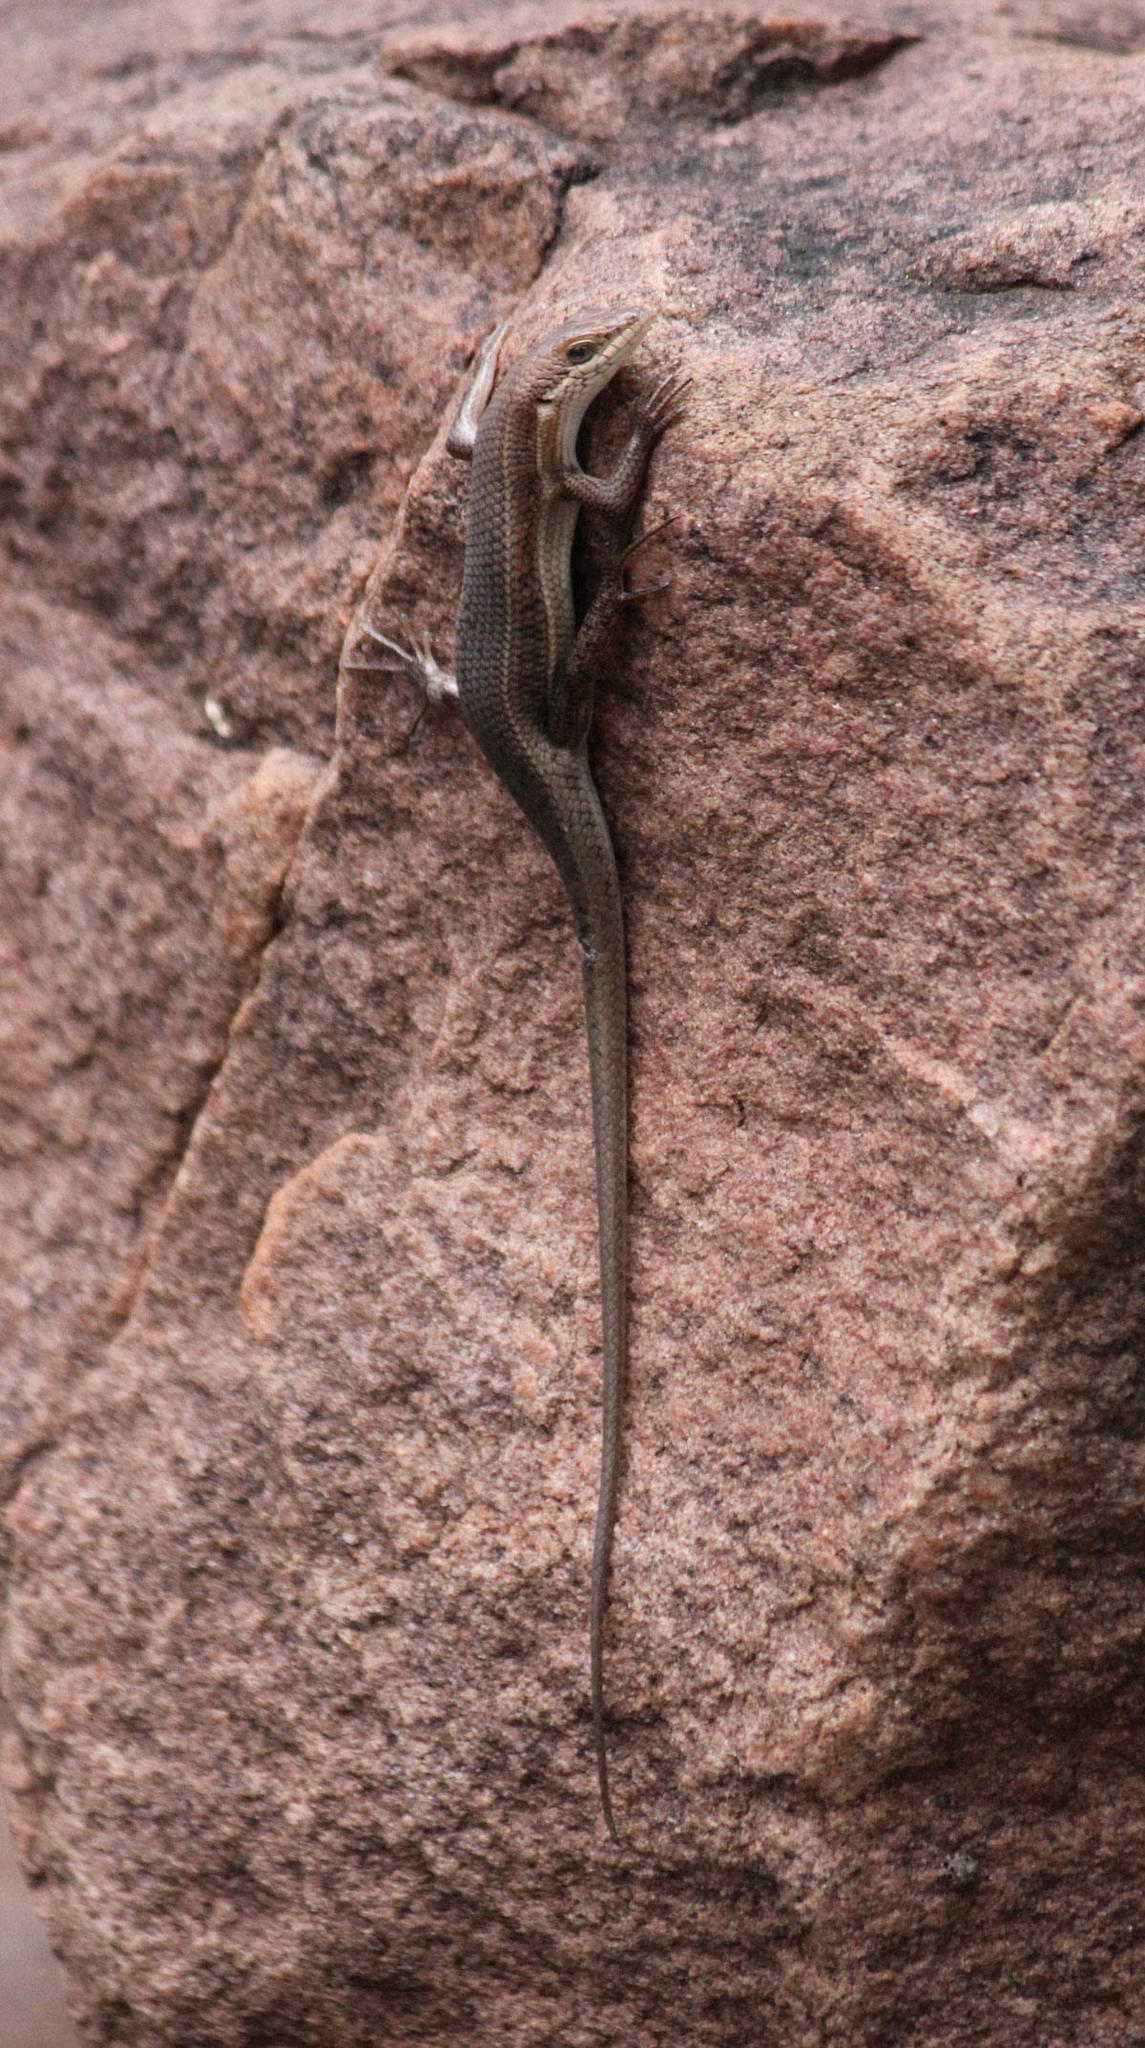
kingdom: Animalia
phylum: Chordata
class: Squamata
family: Scincidae
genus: Trachylepis
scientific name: Trachylepis varia
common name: Eastern variable skink
